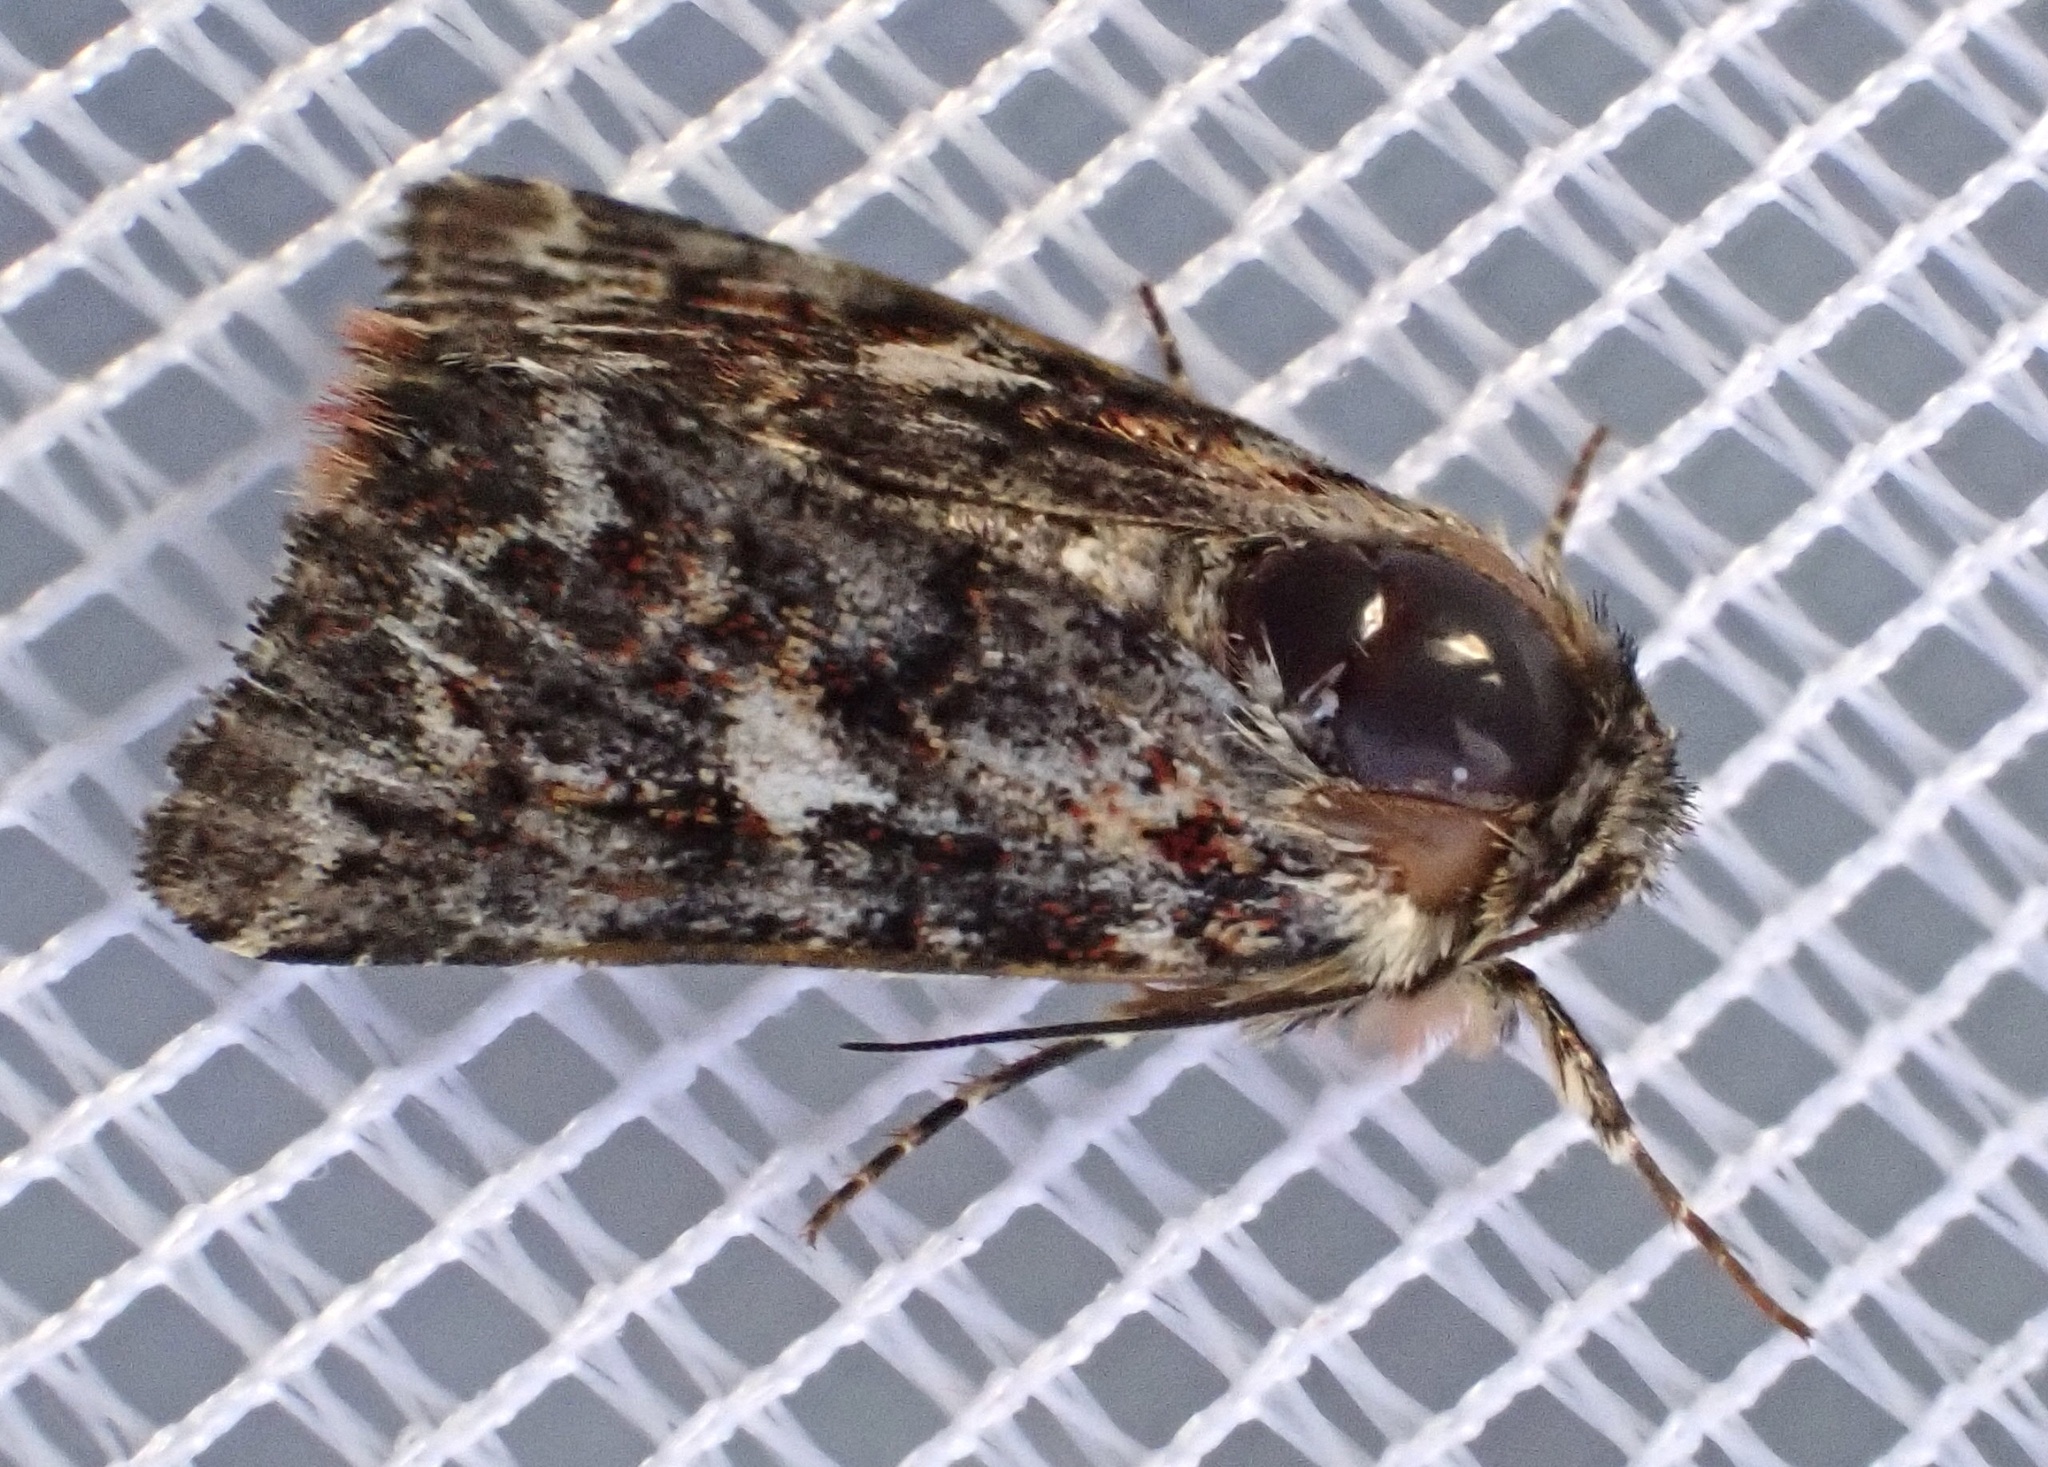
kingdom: Animalia
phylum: Arthropoda
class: Insecta
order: Lepidoptera
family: Noctuidae
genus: Anarta
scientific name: Anarta myrtilli
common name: Beautiful yellow underwing
